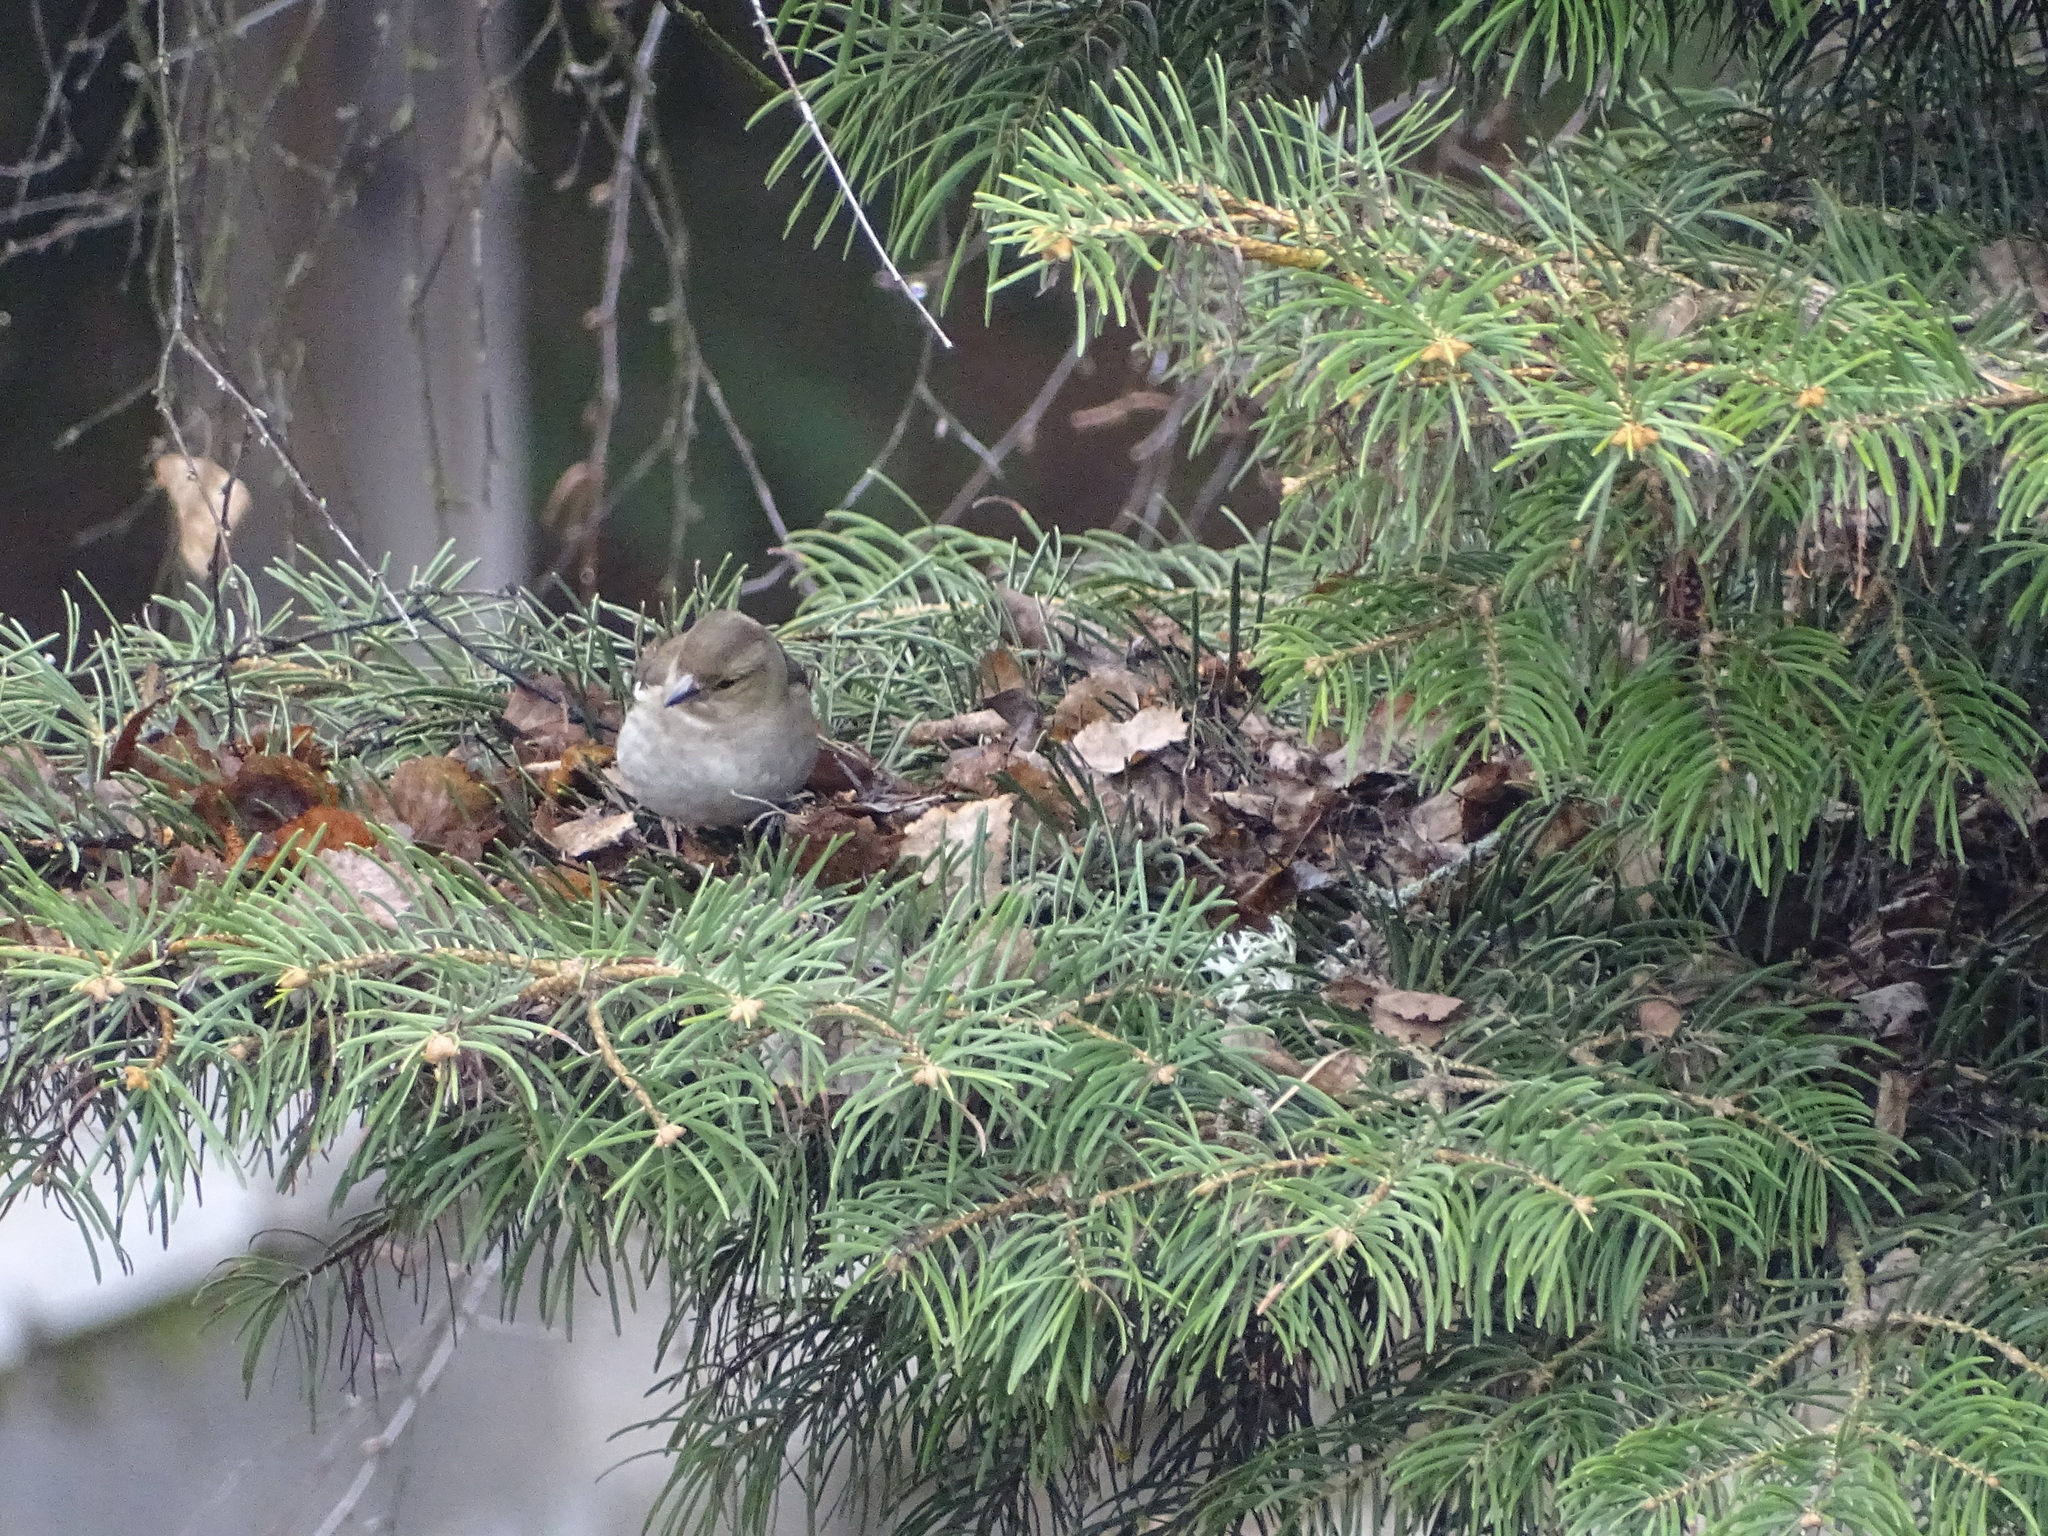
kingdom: Animalia
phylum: Chordata
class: Aves
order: Passeriformes
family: Fringillidae
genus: Fringilla
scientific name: Fringilla coelebs
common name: Common chaffinch
